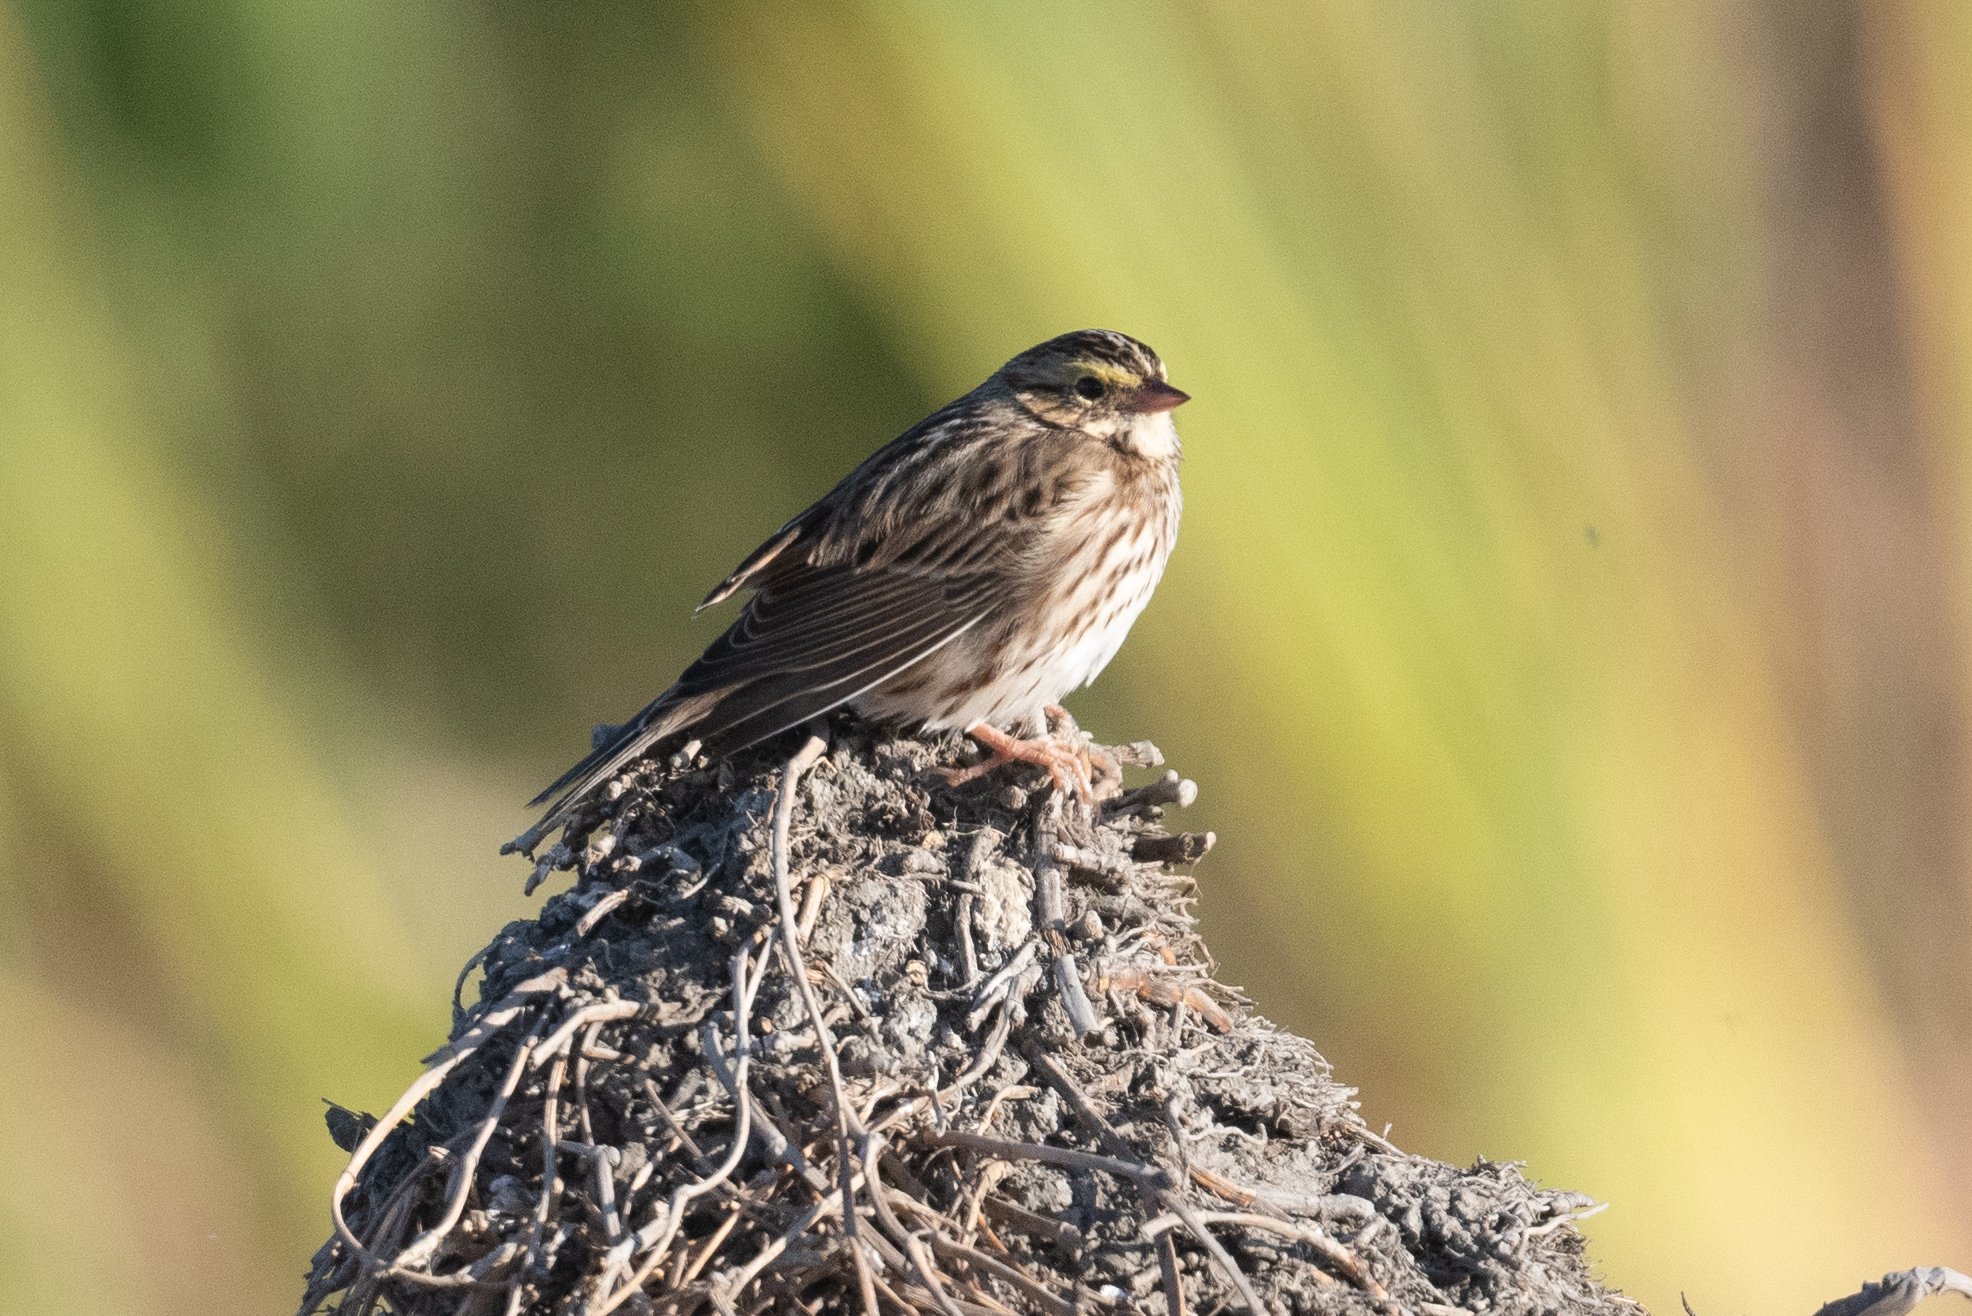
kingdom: Animalia
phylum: Chordata
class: Aves
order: Passeriformes
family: Passerellidae
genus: Passerculus
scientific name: Passerculus sandwichensis
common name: Savannah sparrow
